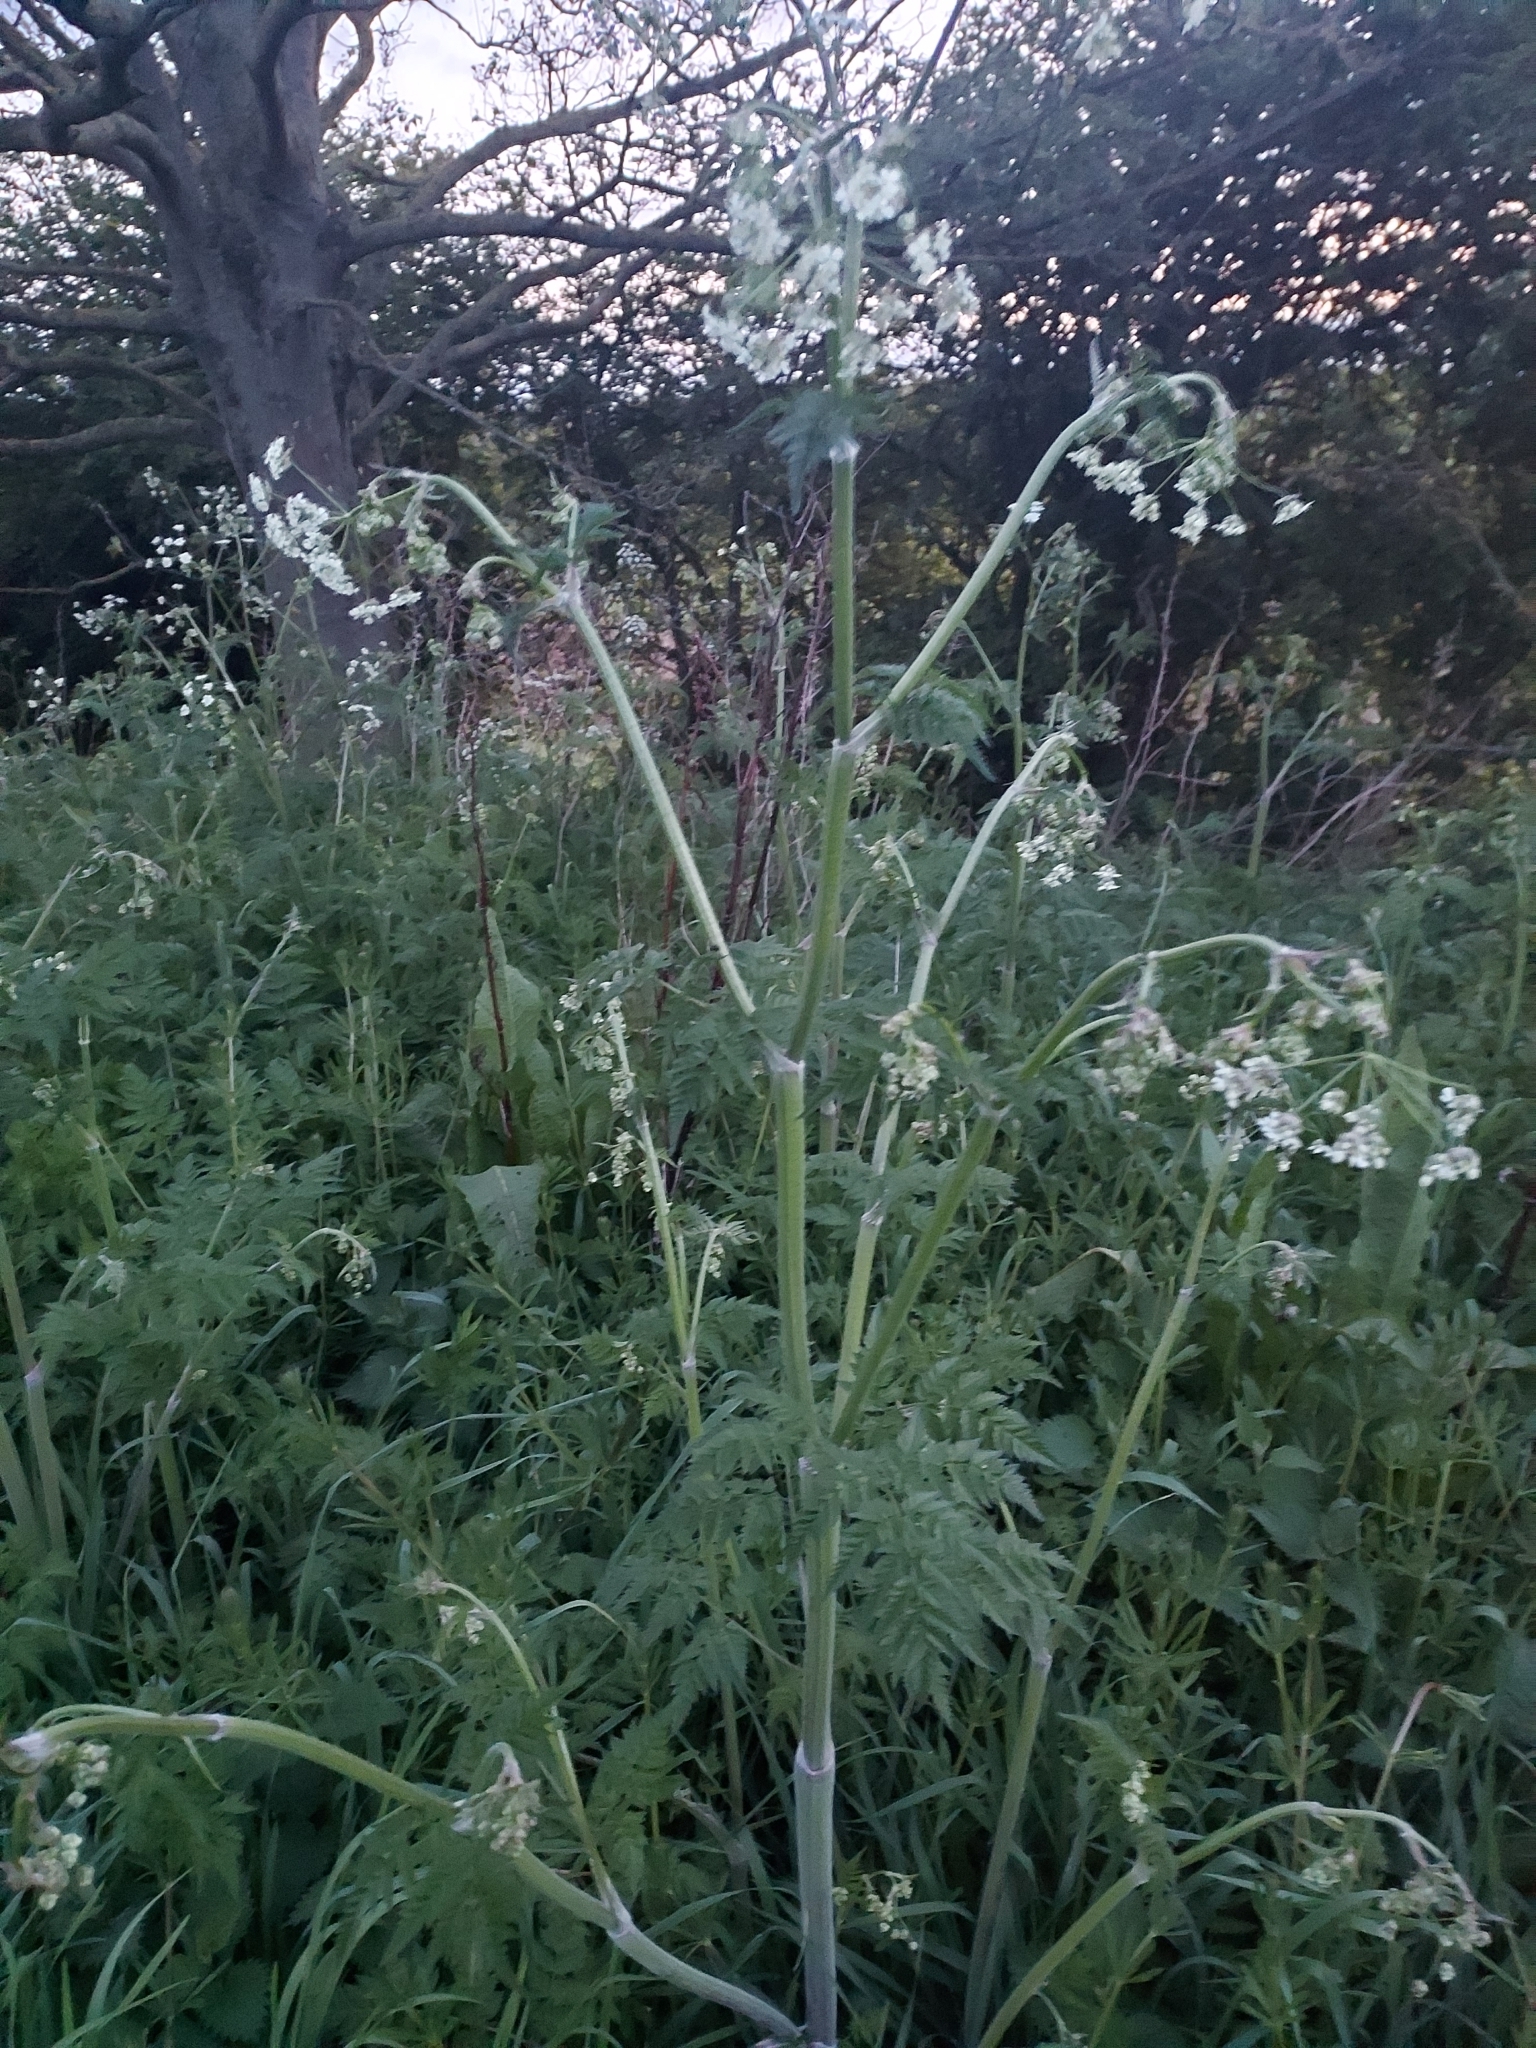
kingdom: Plantae
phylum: Tracheophyta
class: Magnoliopsida
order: Apiales
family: Apiaceae
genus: Anthriscus
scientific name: Anthriscus sylvestris
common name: Cow parsley
